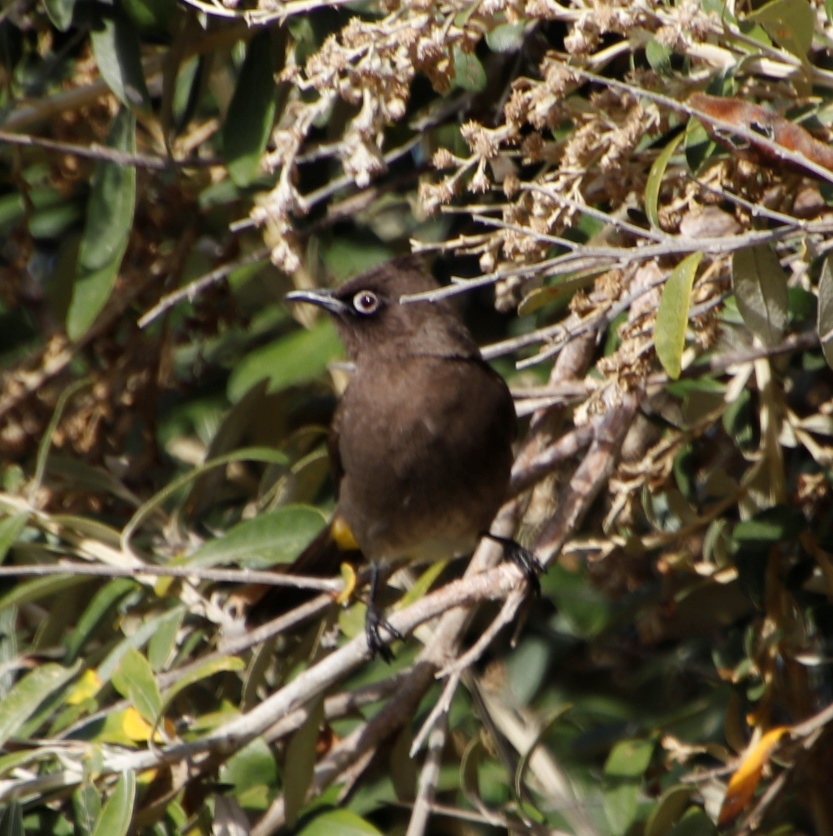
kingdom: Animalia
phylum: Chordata
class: Aves
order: Passeriformes
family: Pycnonotidae
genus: Pycnonotus
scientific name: Pycnonotus capensis
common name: Cape bulbul
